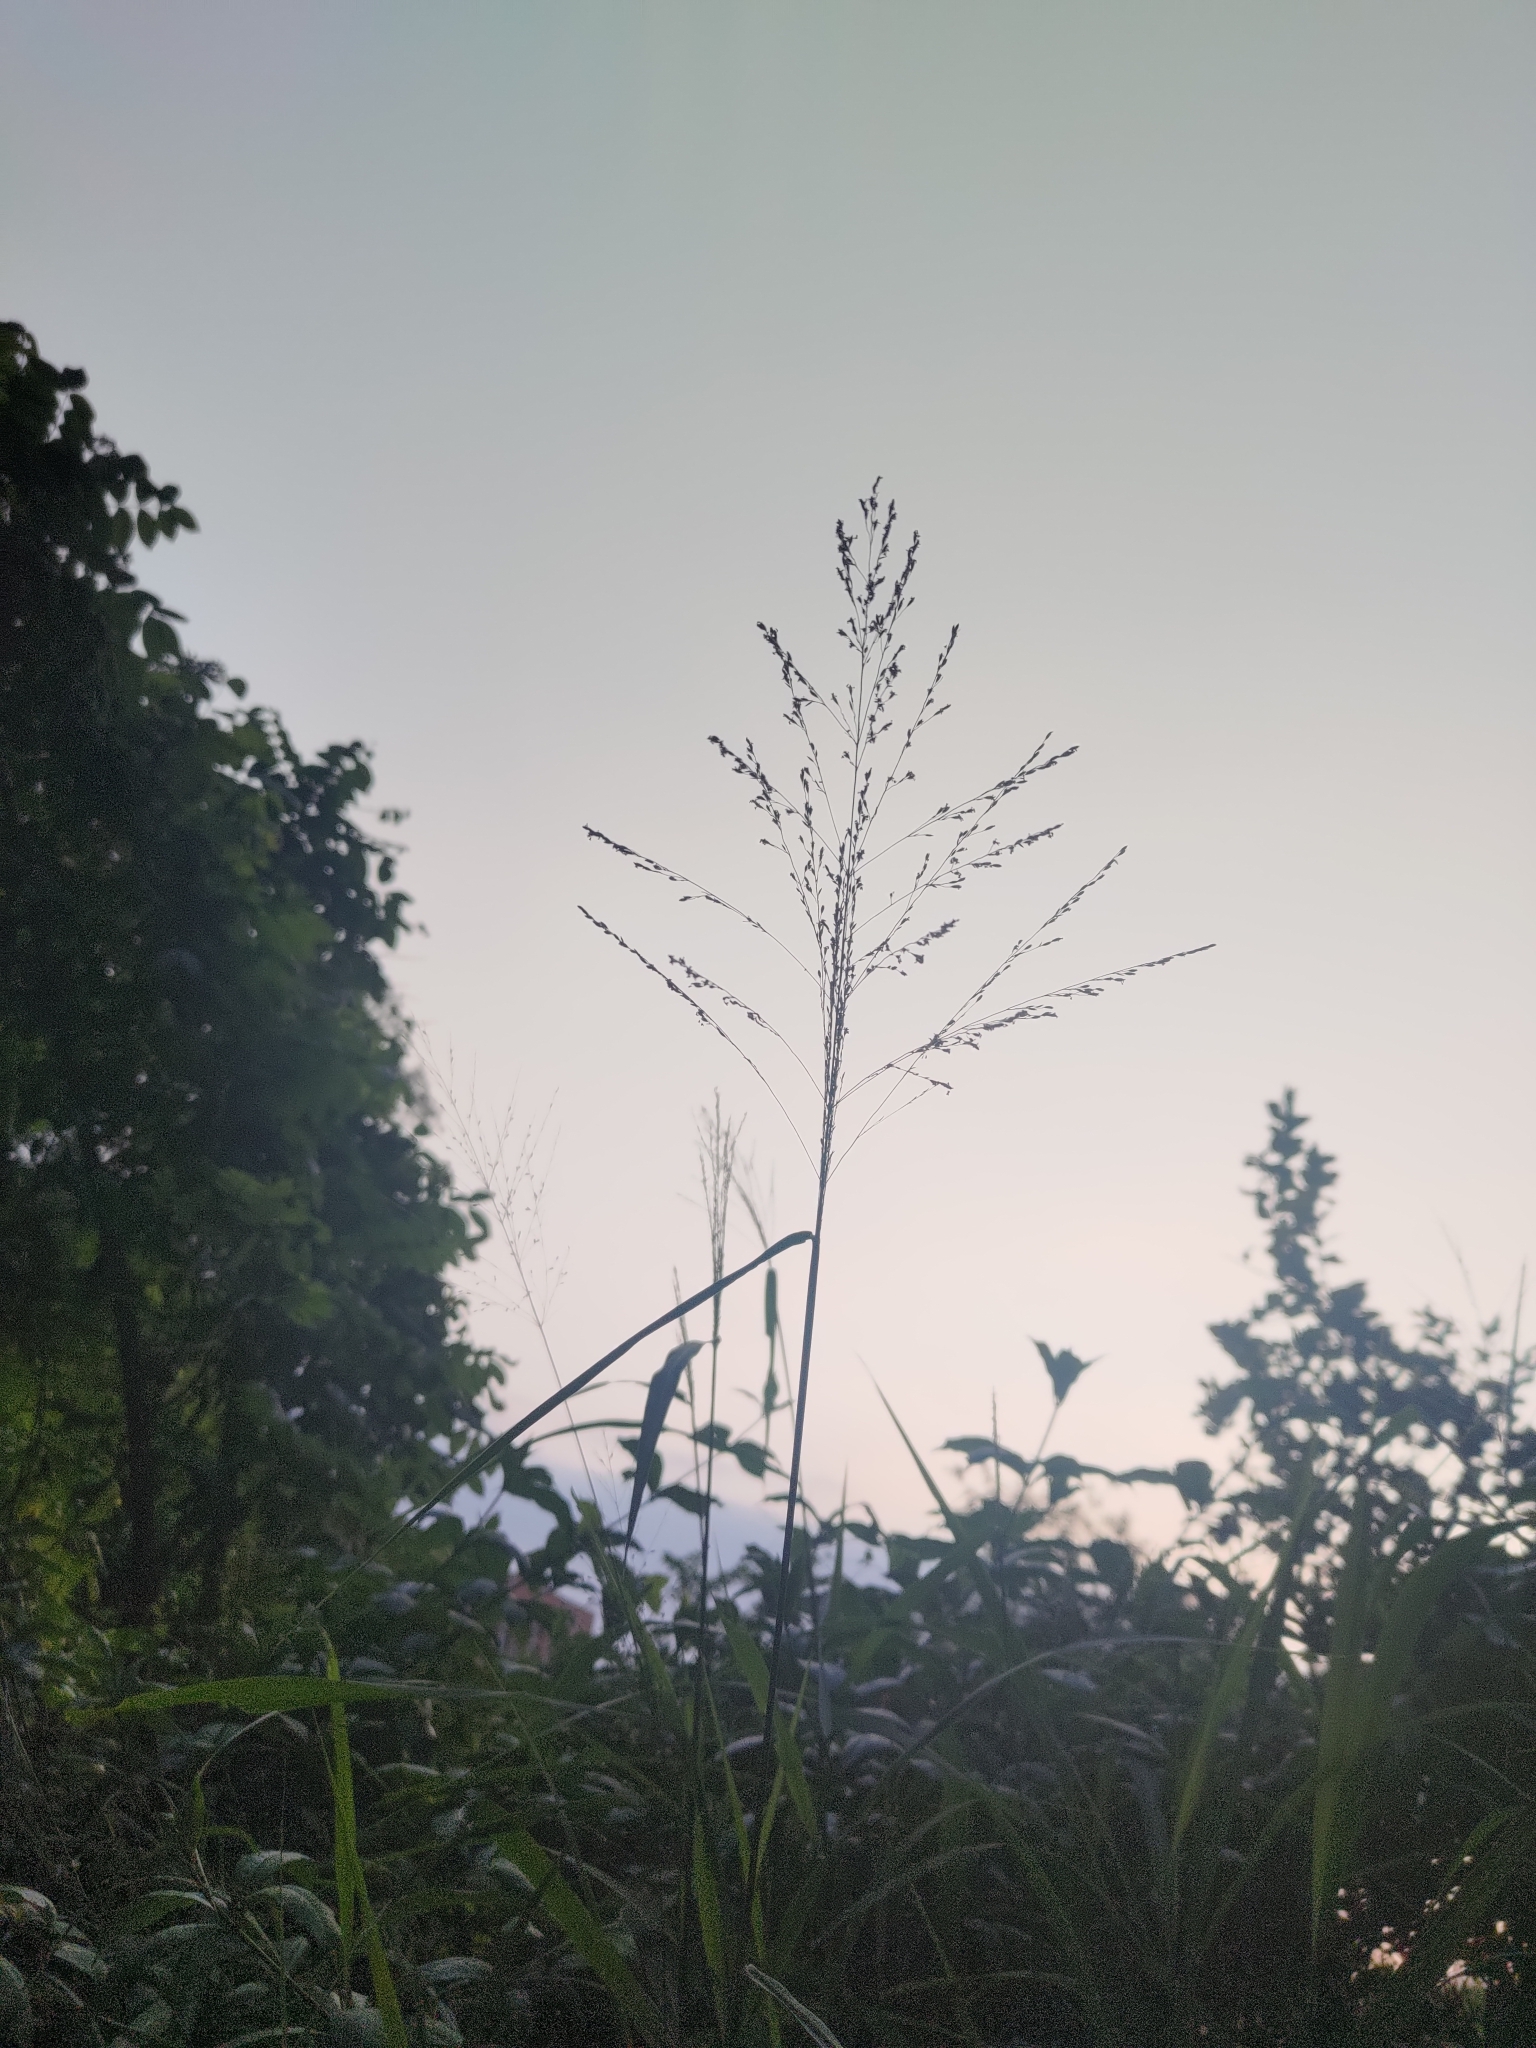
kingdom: Plantae
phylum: Tracheophyta
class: Liliopsida
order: Poales
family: Poaceae
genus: Megathyrsus
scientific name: Megathyrsus maximus
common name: Guineagrass
